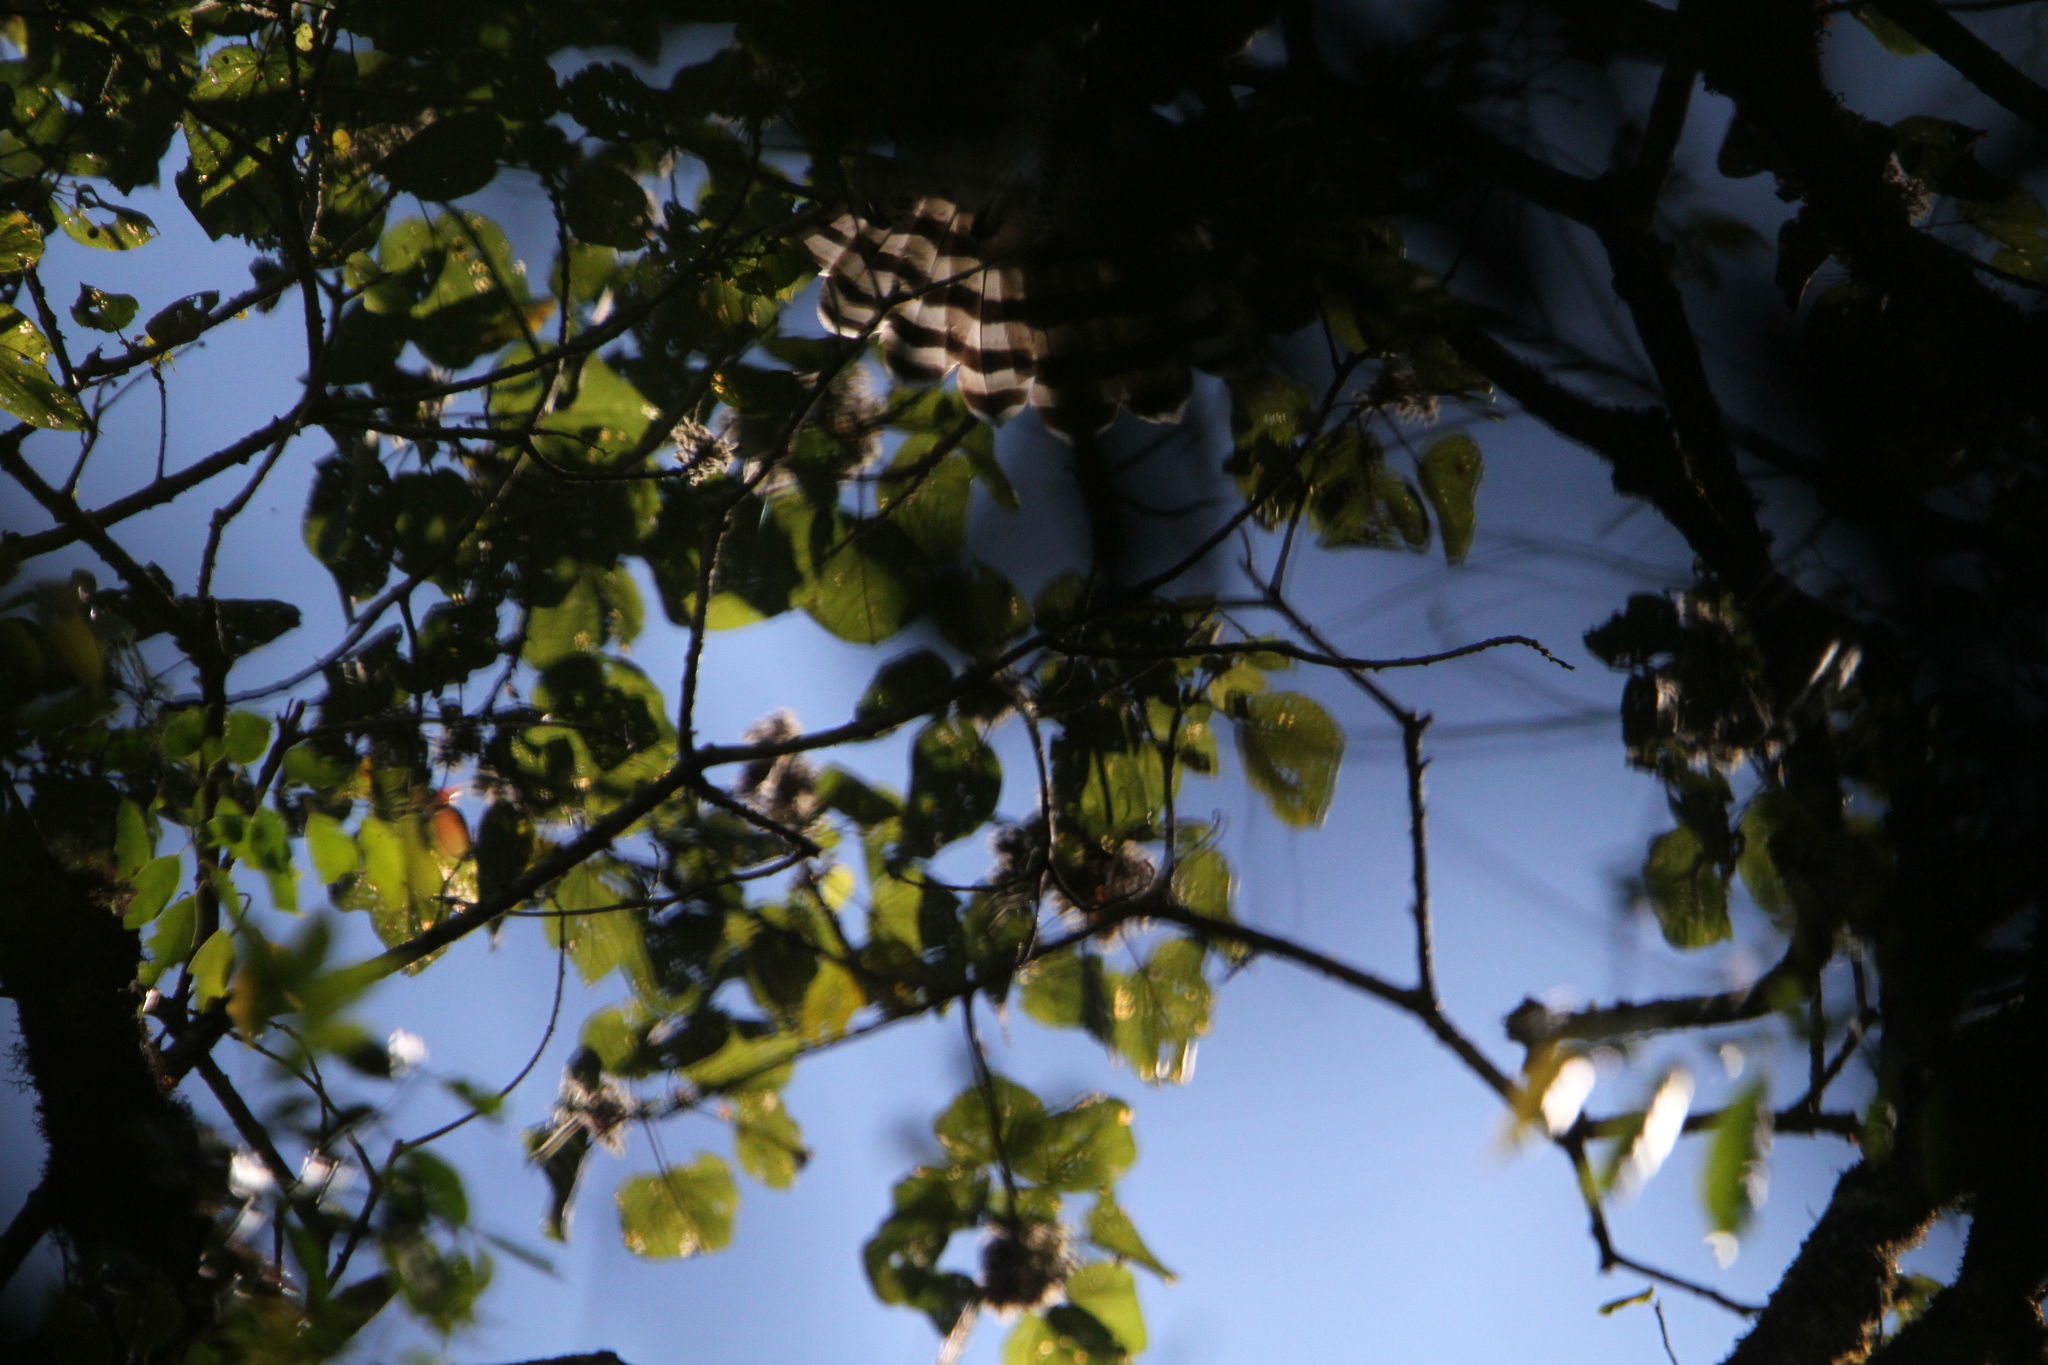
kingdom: Animalia
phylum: Chordata
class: Aves
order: Accipitriformes
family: Accipitridae
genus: Spizaetus
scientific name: Spizaetus ornatus
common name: Ornate hawk-eagle
